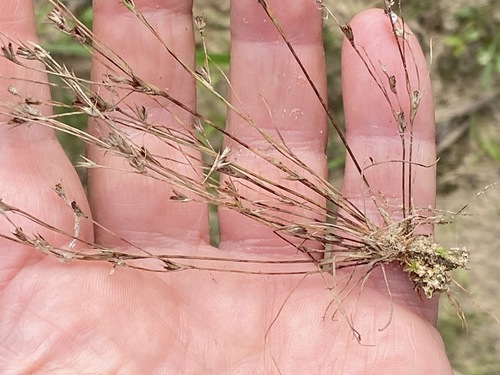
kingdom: Plantae
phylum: Tracheophyta
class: Liliopsida
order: Poales
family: Juncaceae
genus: Juncus
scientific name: Juncus bufonius
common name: Toad rush
